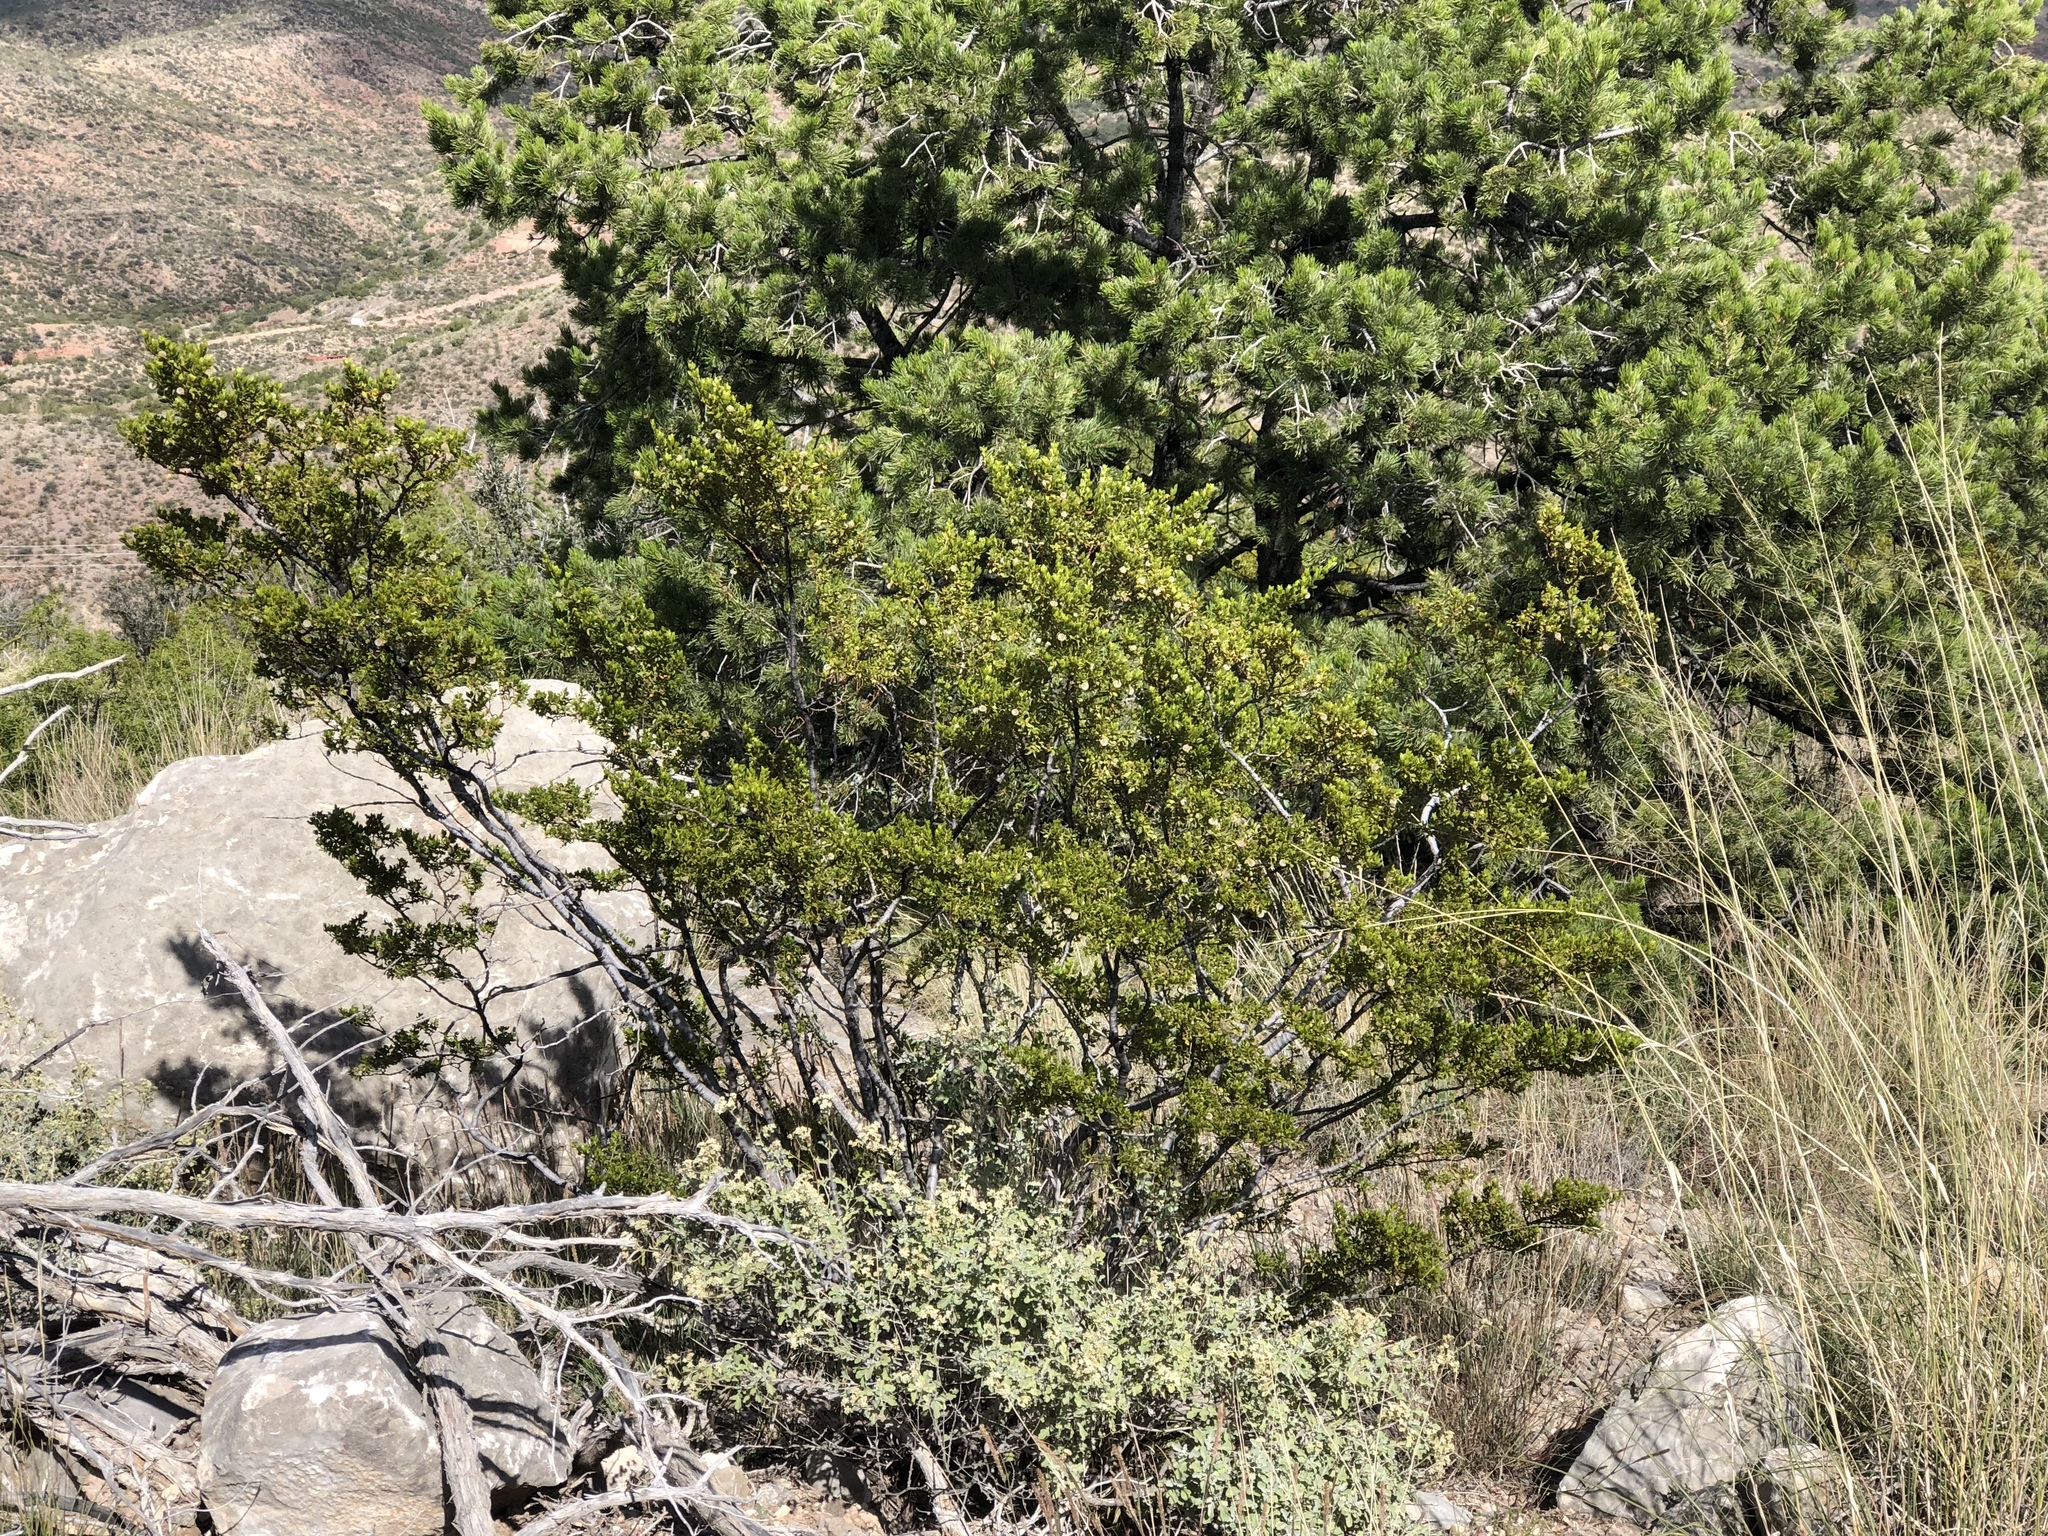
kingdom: Plantae
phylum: Tracheophyta
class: Magnoliopsida
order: Zygophyllales
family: Zygophyllaceae
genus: Larrea
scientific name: Larrea tridentata
